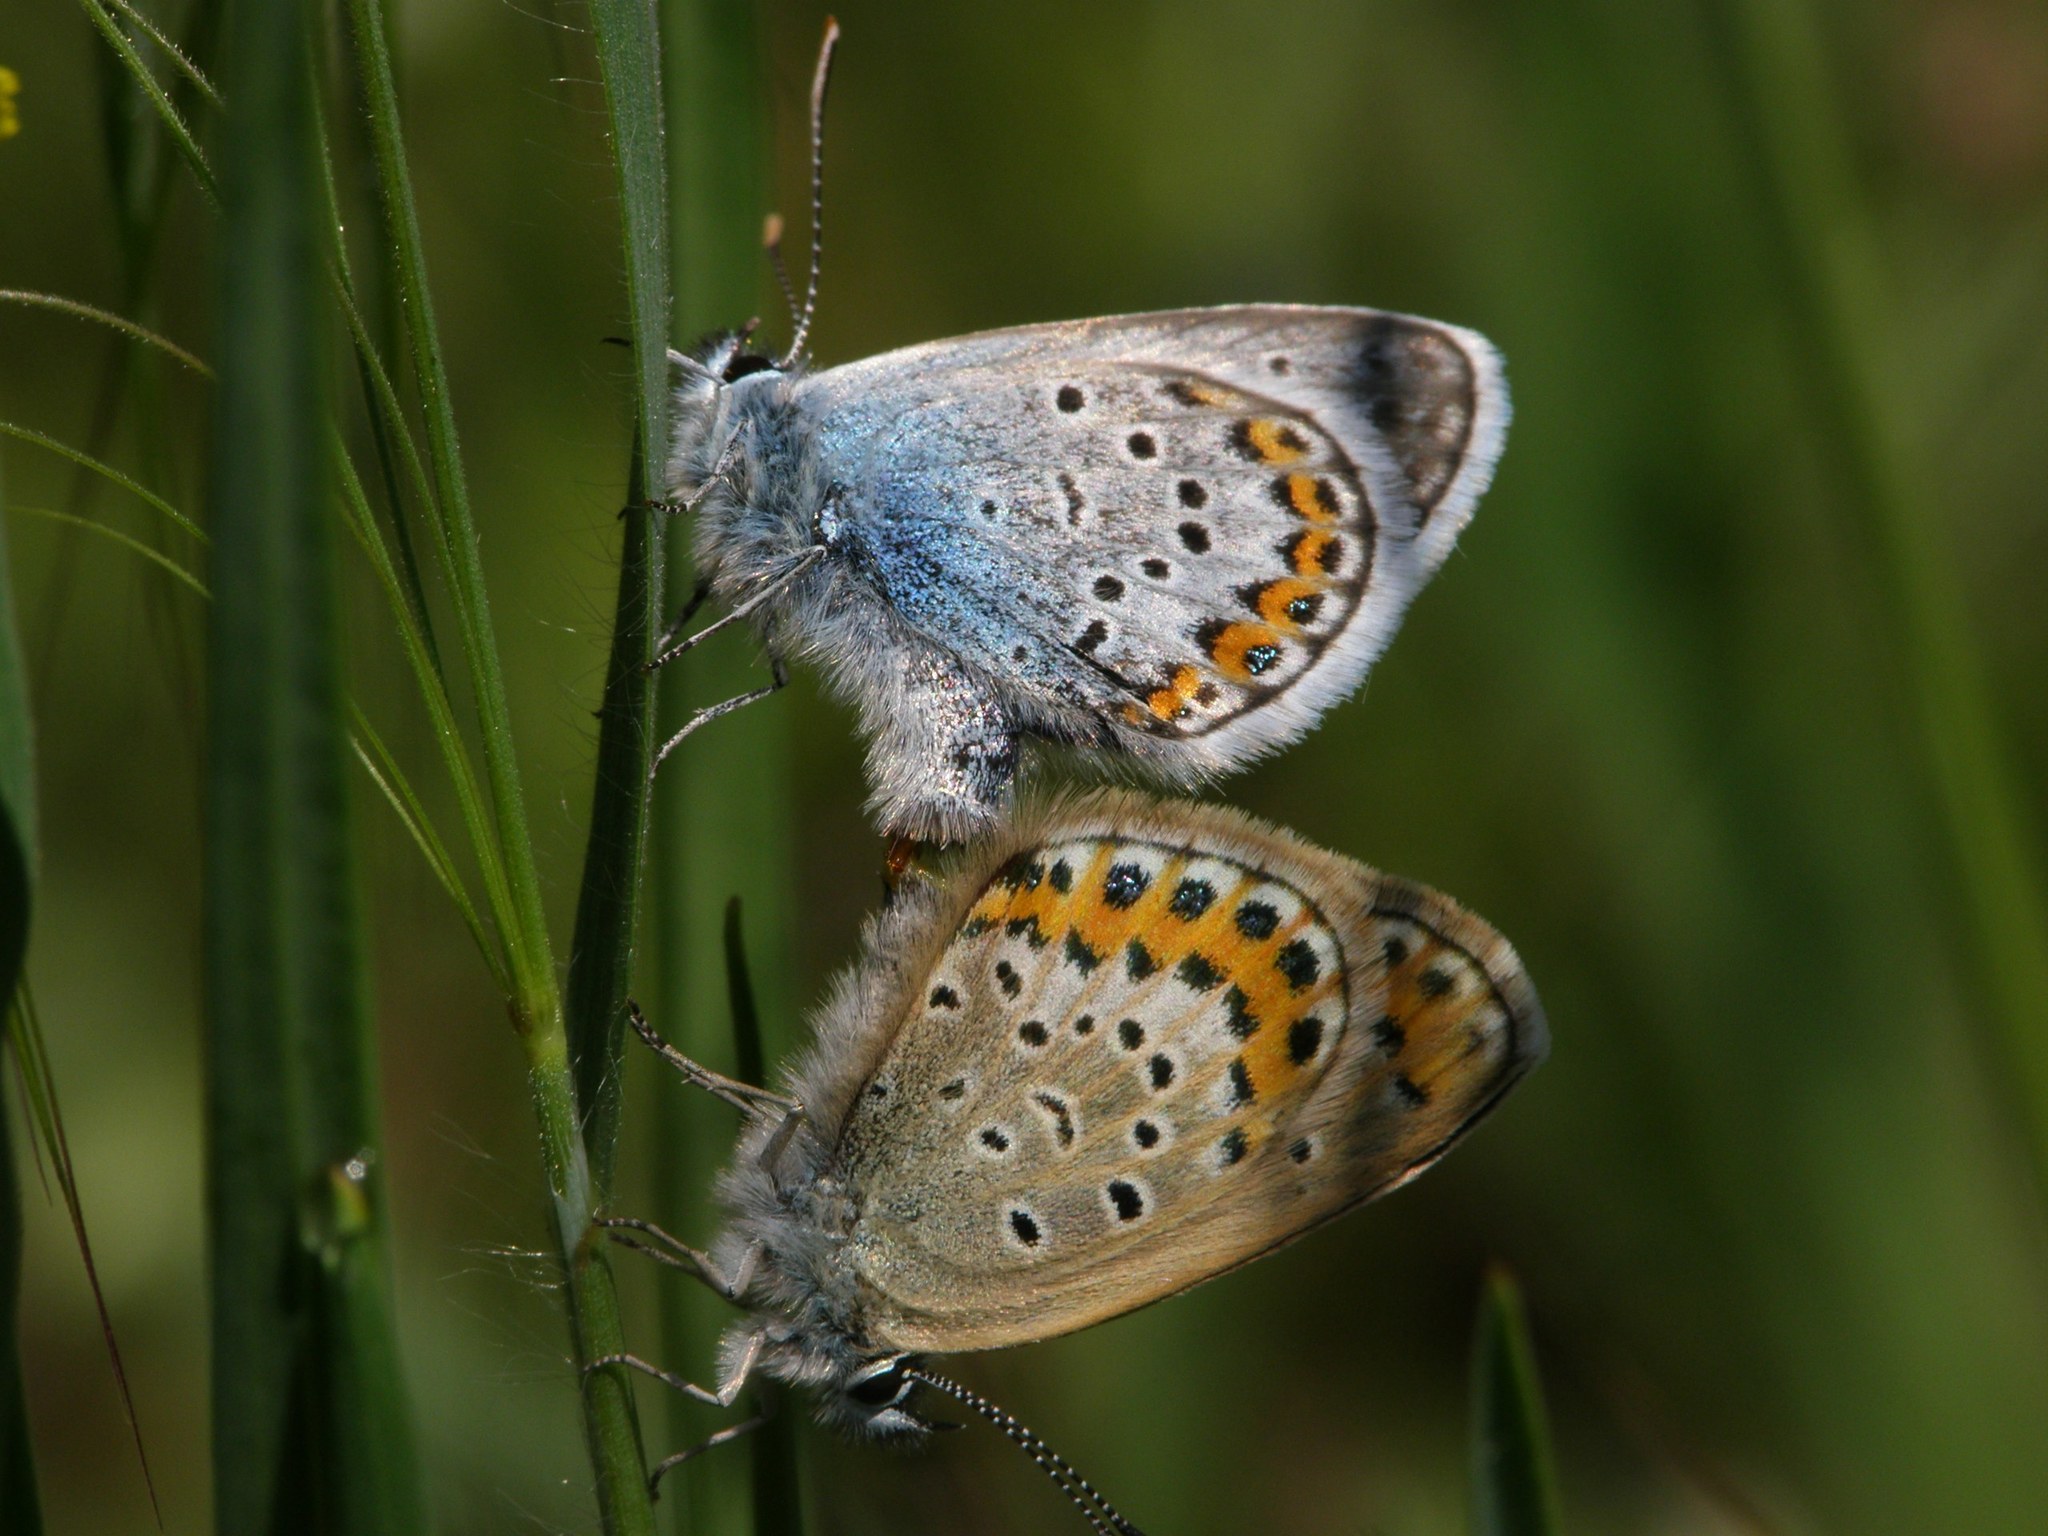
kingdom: Animalia
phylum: Arthropoda
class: Insecta
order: Lepidoptera
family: Lycaenidae
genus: Plebejus
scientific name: Plebejus argus
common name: Silver-studded blue
